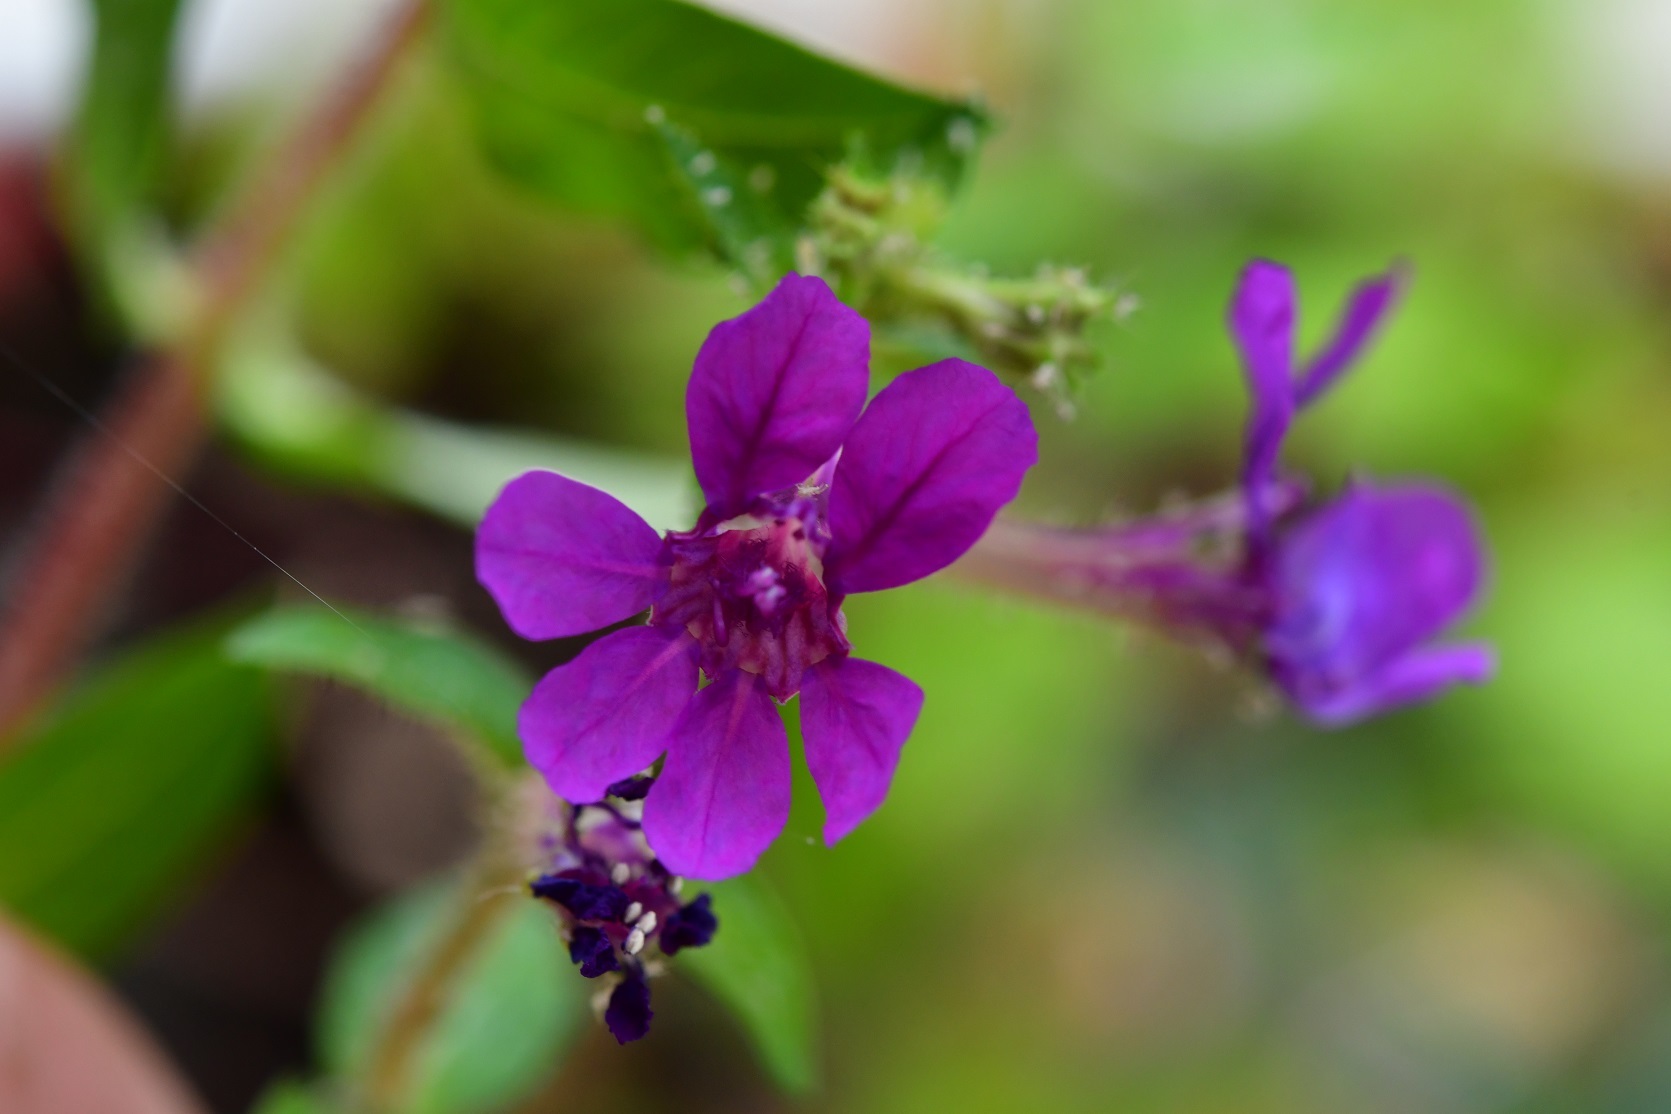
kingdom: Plantae
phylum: Tracheophyta
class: Magnoliopsida
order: Myrtales
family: Lythraceae
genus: Cuphea
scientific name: Cuphea aequipetala
